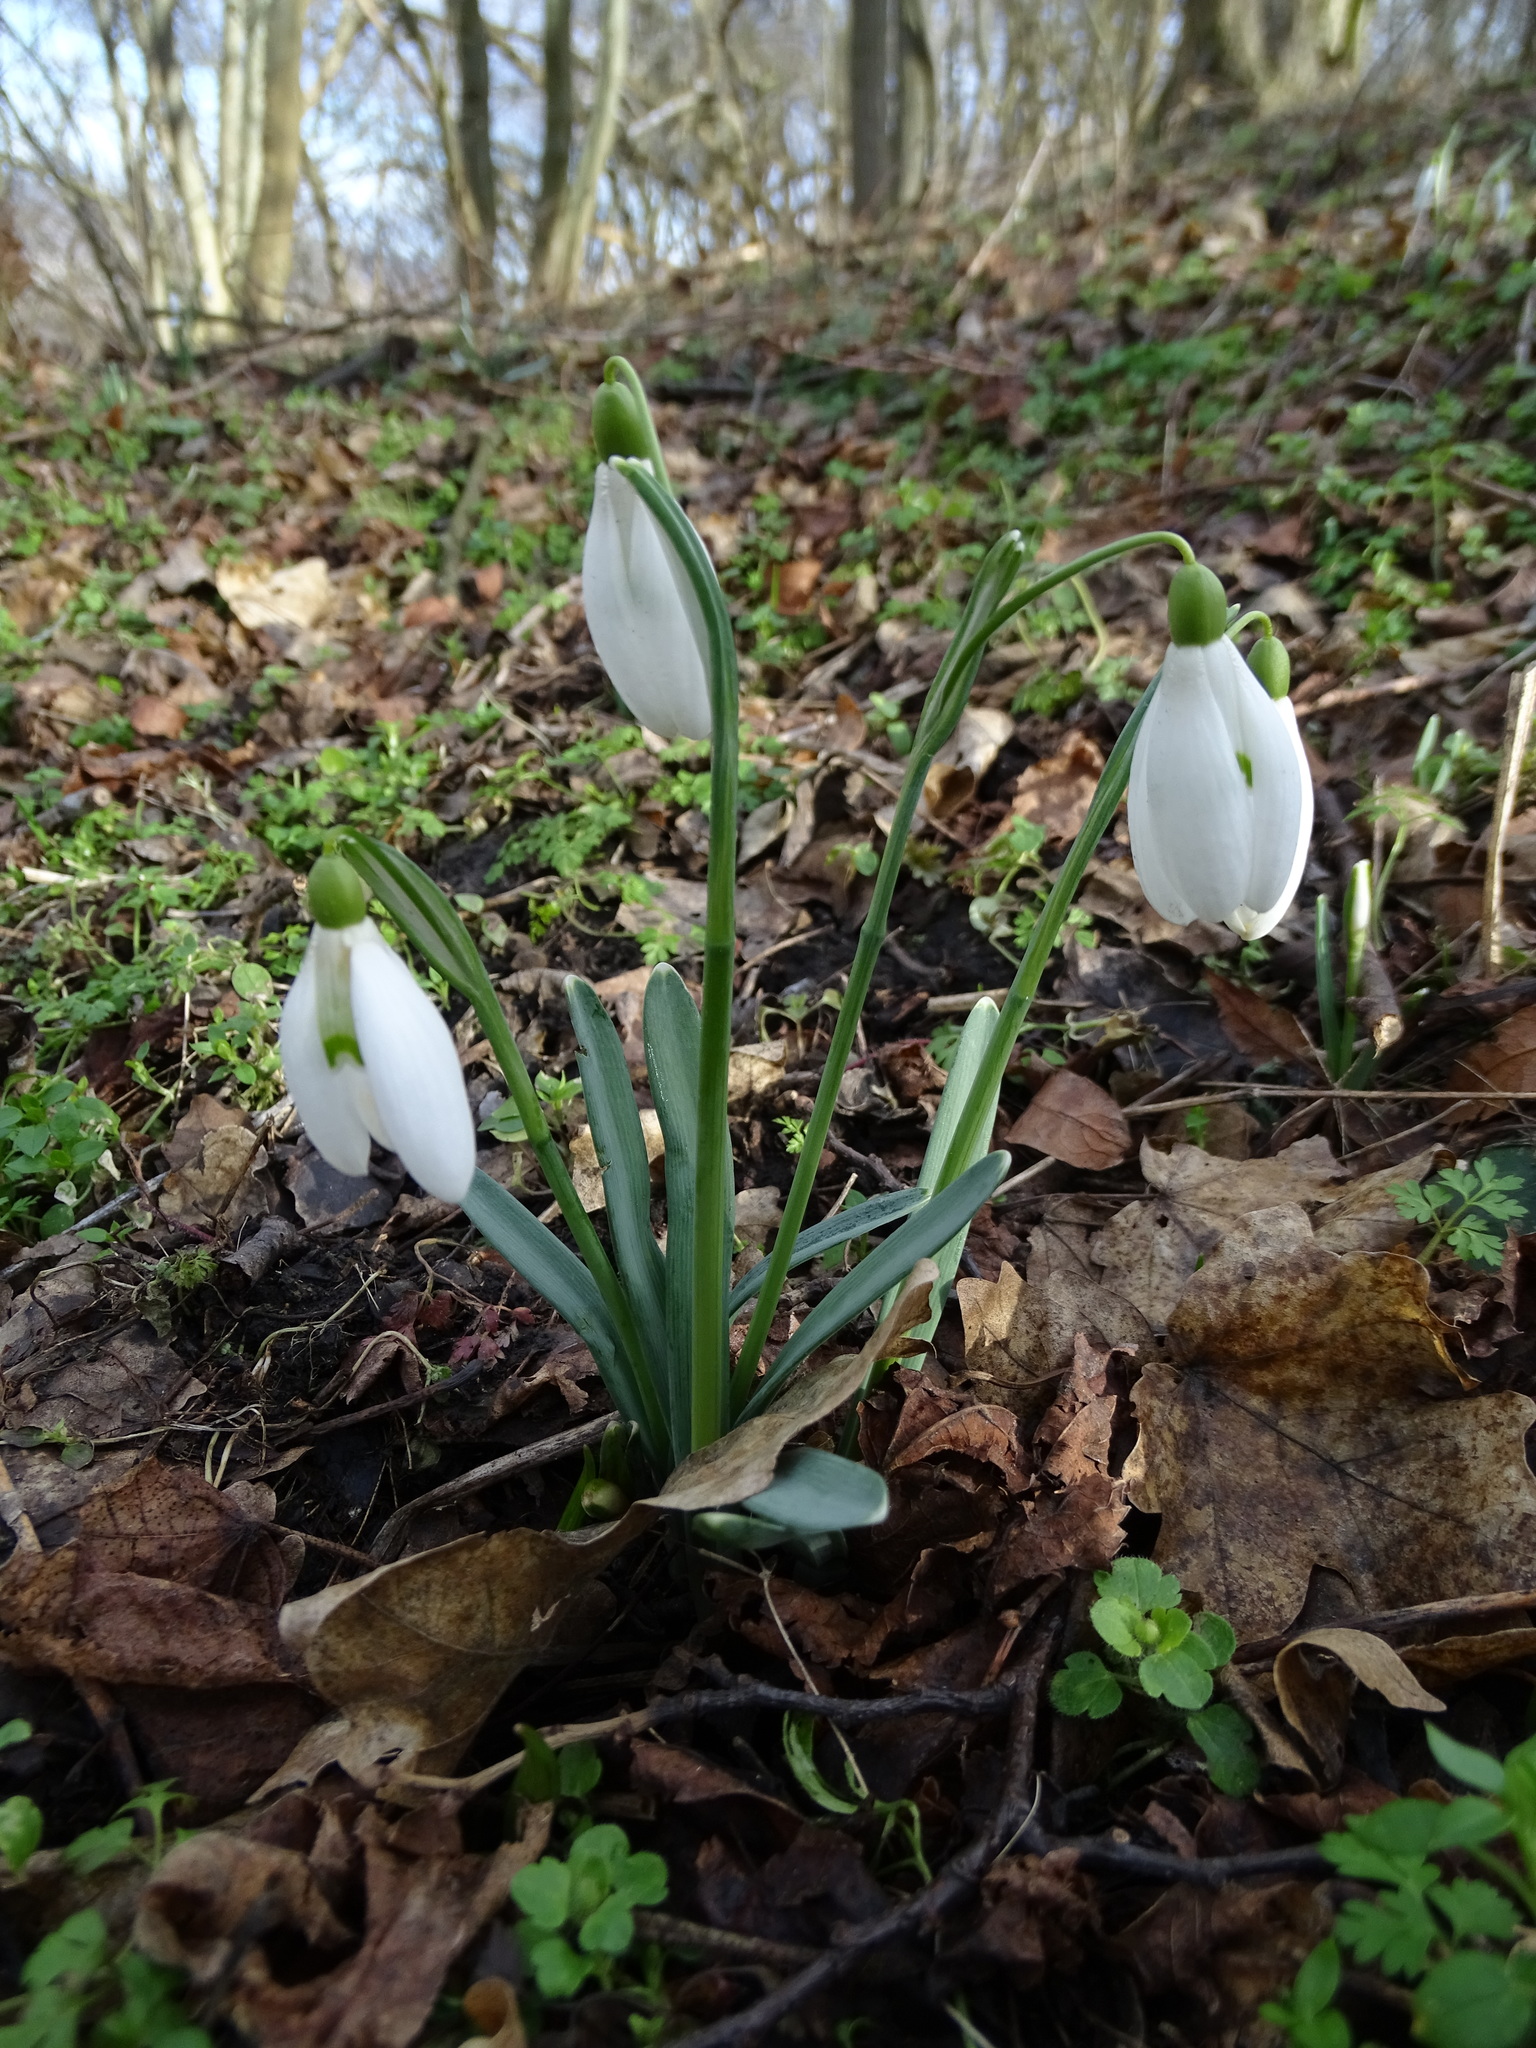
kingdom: Plantae
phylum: Tracheophyta
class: Liliopsida
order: Asparagales
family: Amaryllidaceae
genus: Galanthus
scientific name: Galanthus nivalis
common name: Snowdrop
